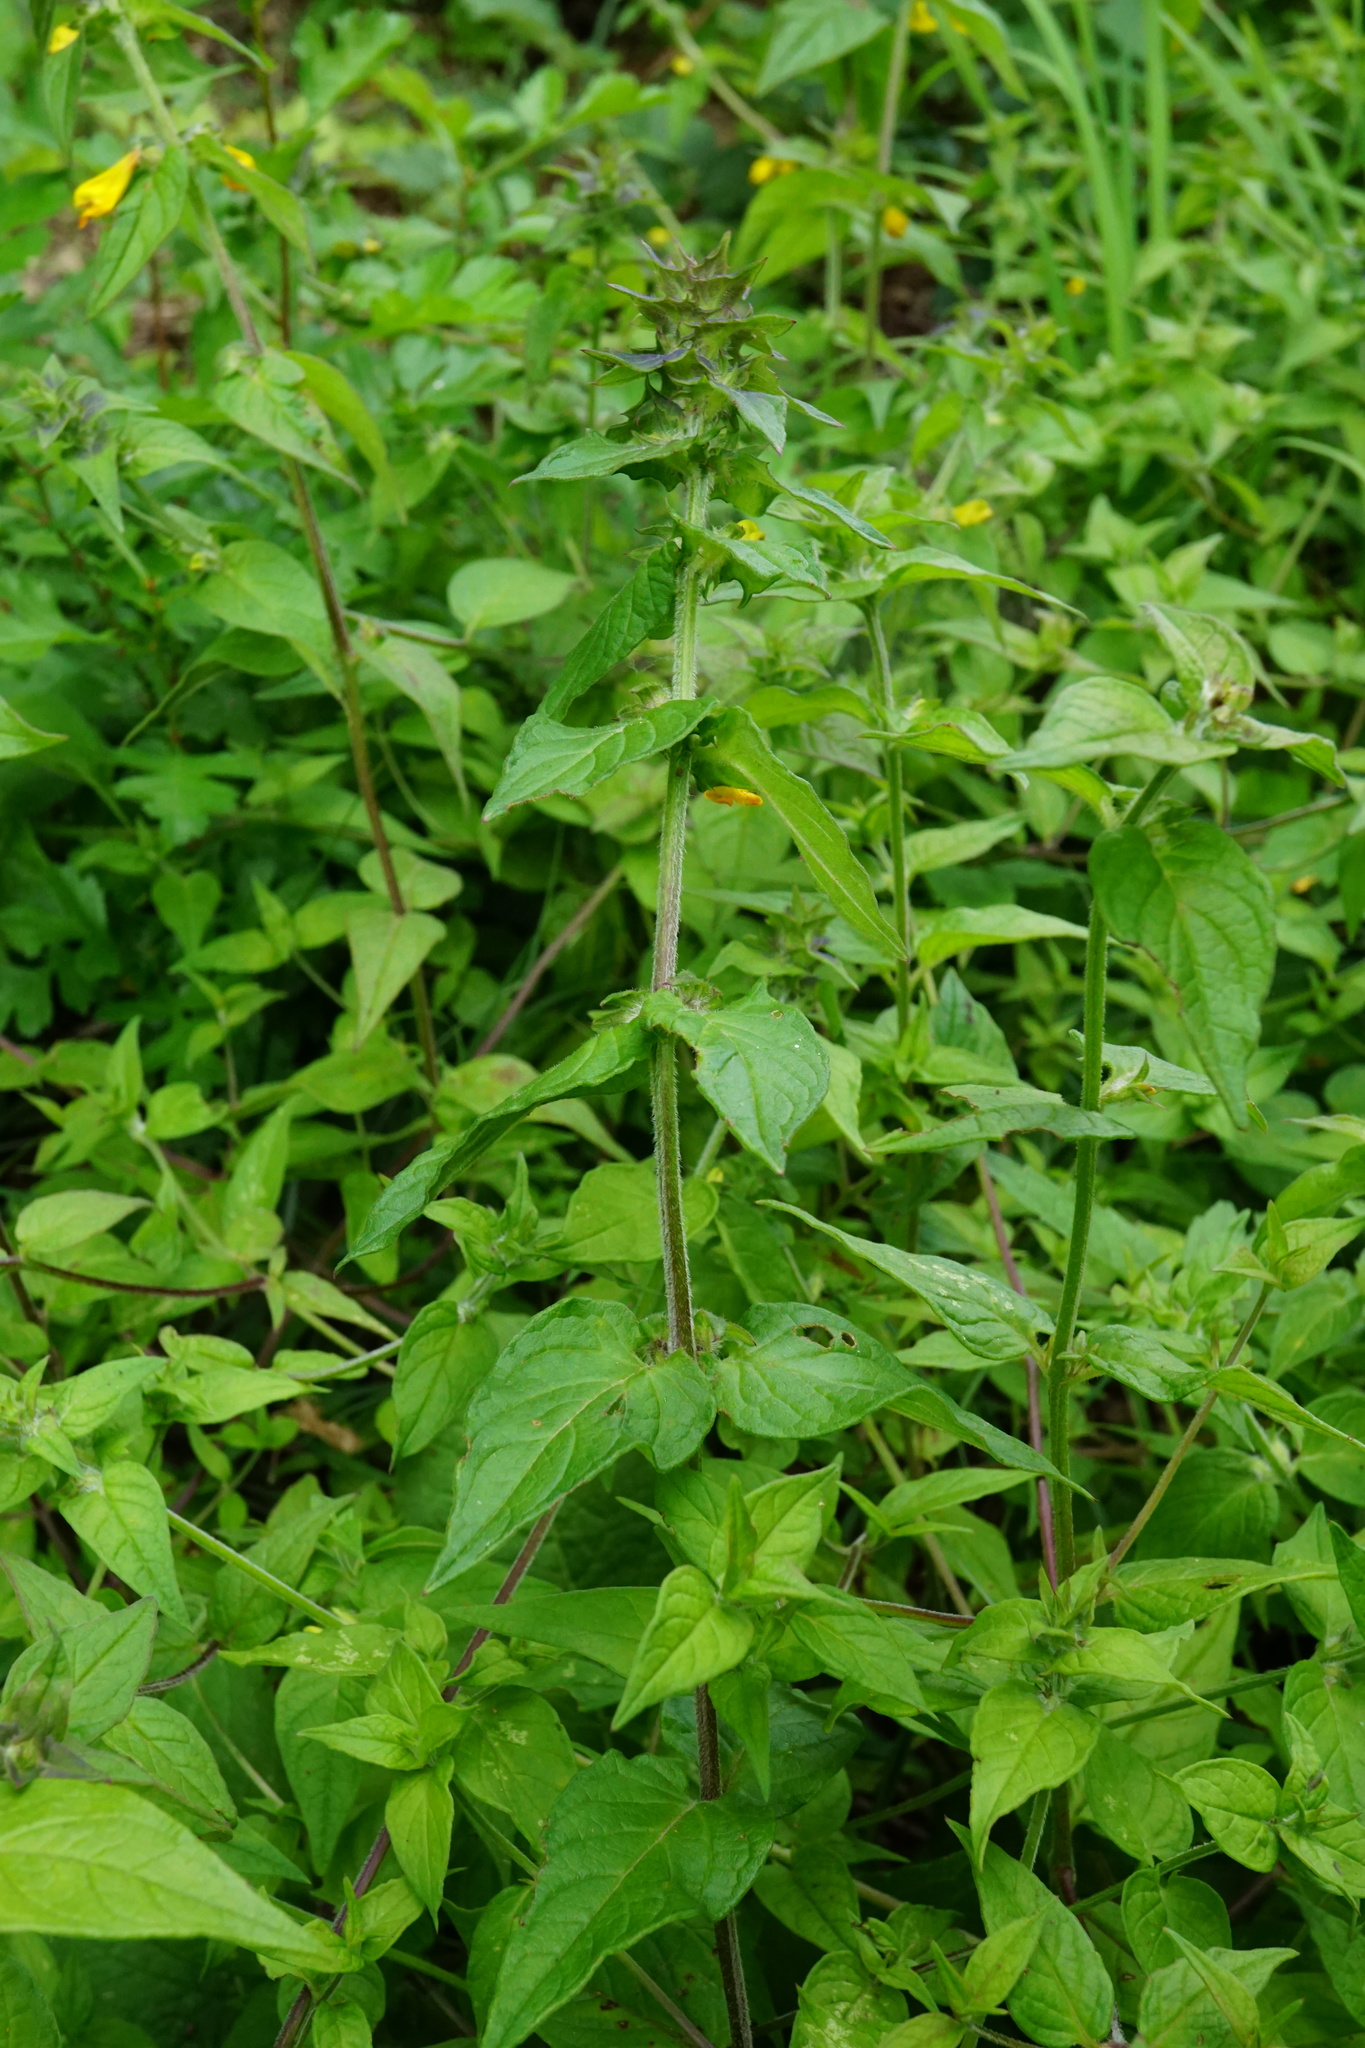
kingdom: Plantae
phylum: Tracheophyta
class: Magnoliopsida
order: Lamiales
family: Orobanchaceae
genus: Melampyrum
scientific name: Melampyrum nemorosum
